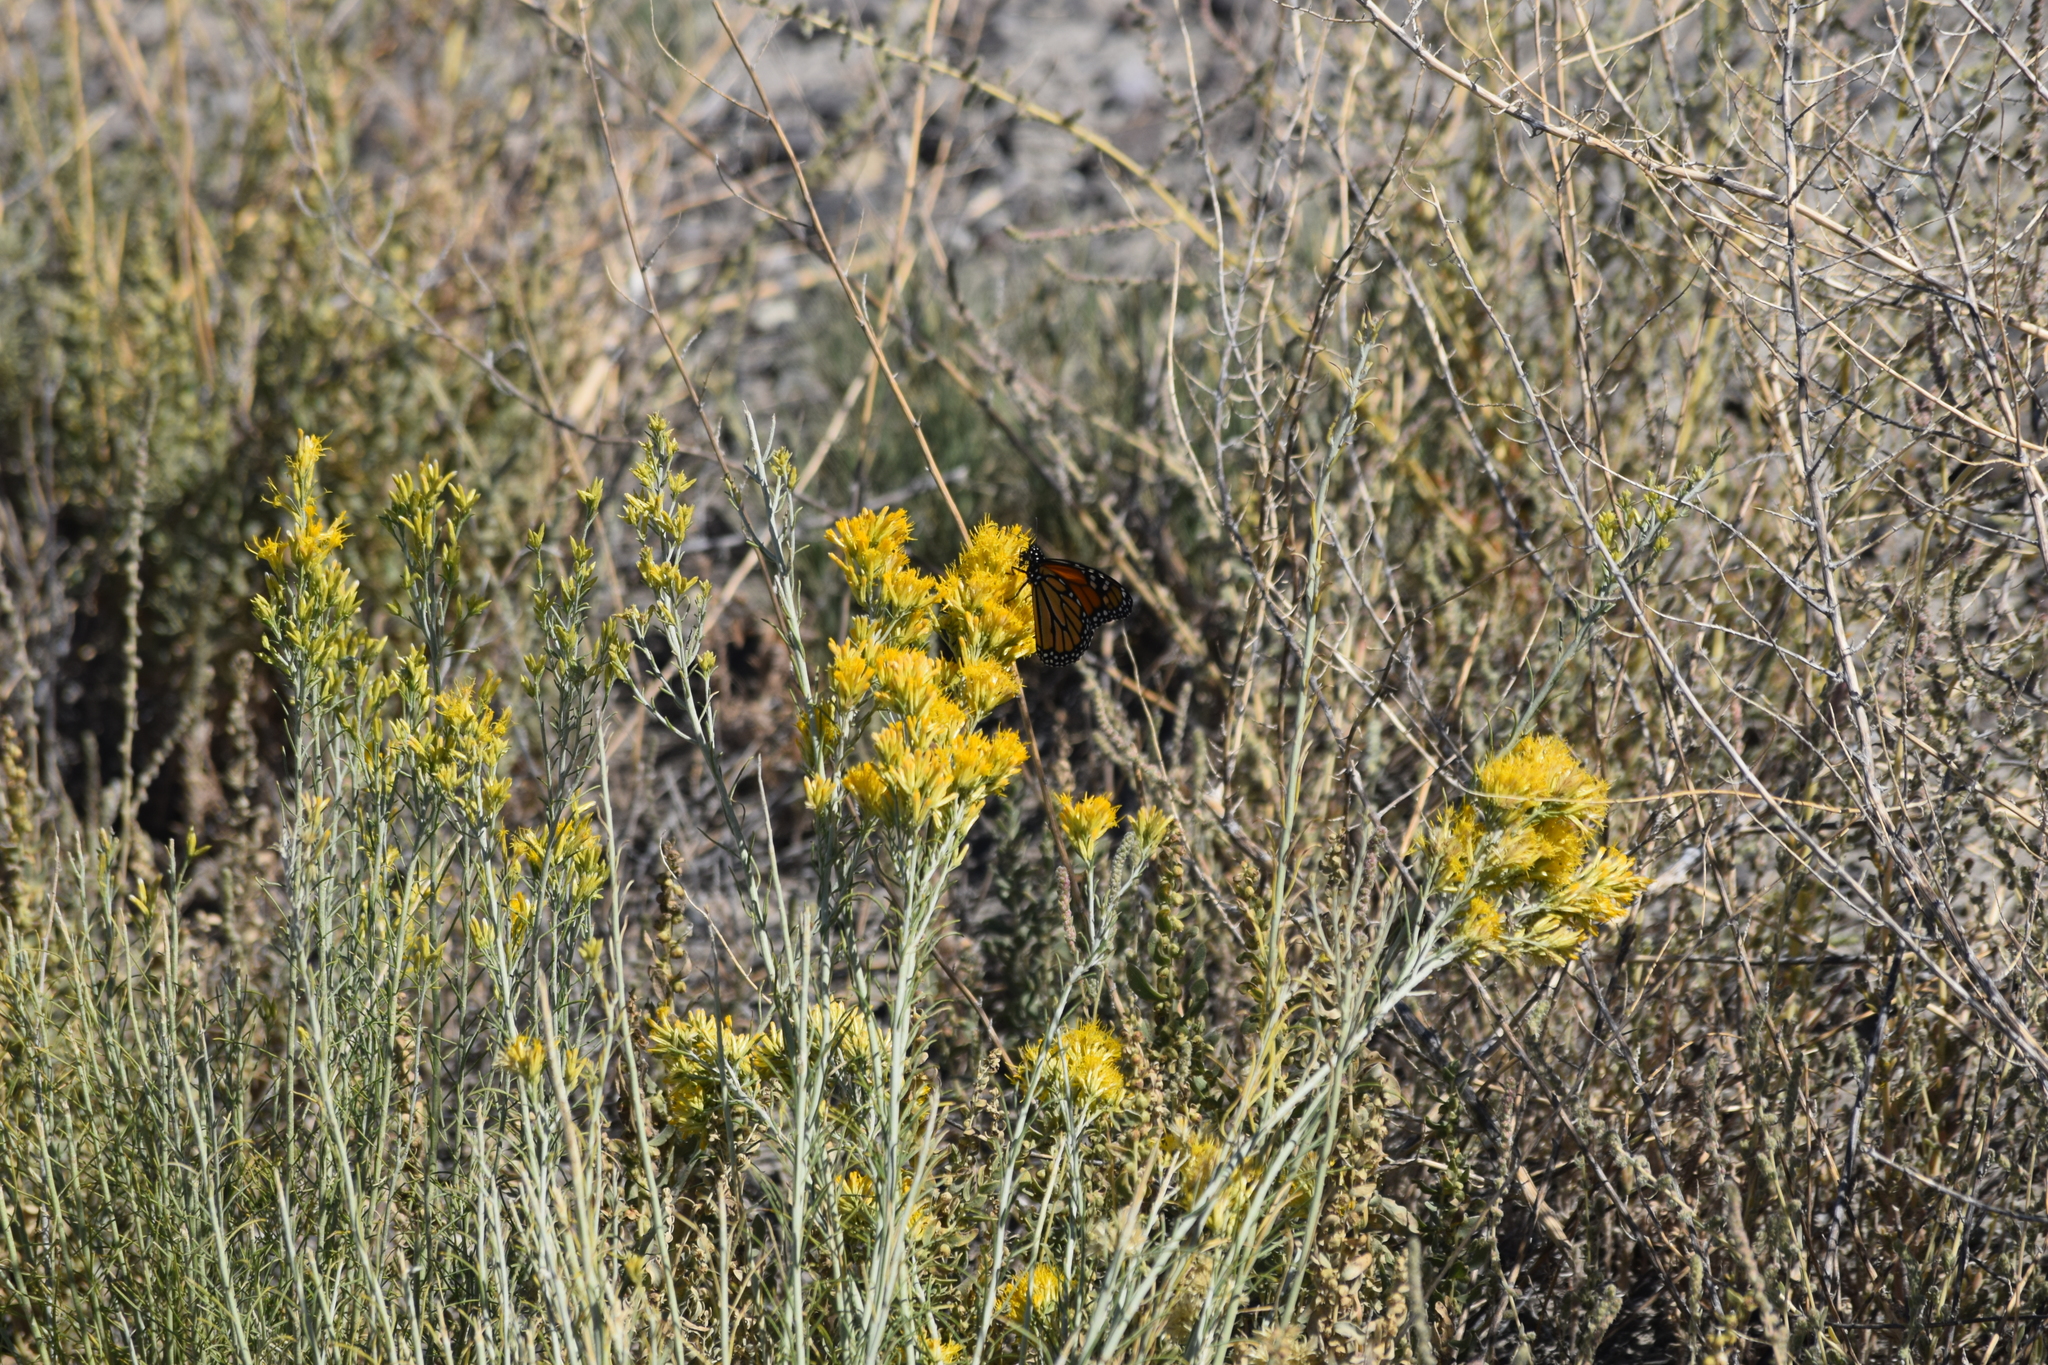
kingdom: Animalia
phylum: Arthropoda
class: Insecta
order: Lepidoptera
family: Nymphalidae
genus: Danaus
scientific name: Danaus plexippus
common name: Monarch
